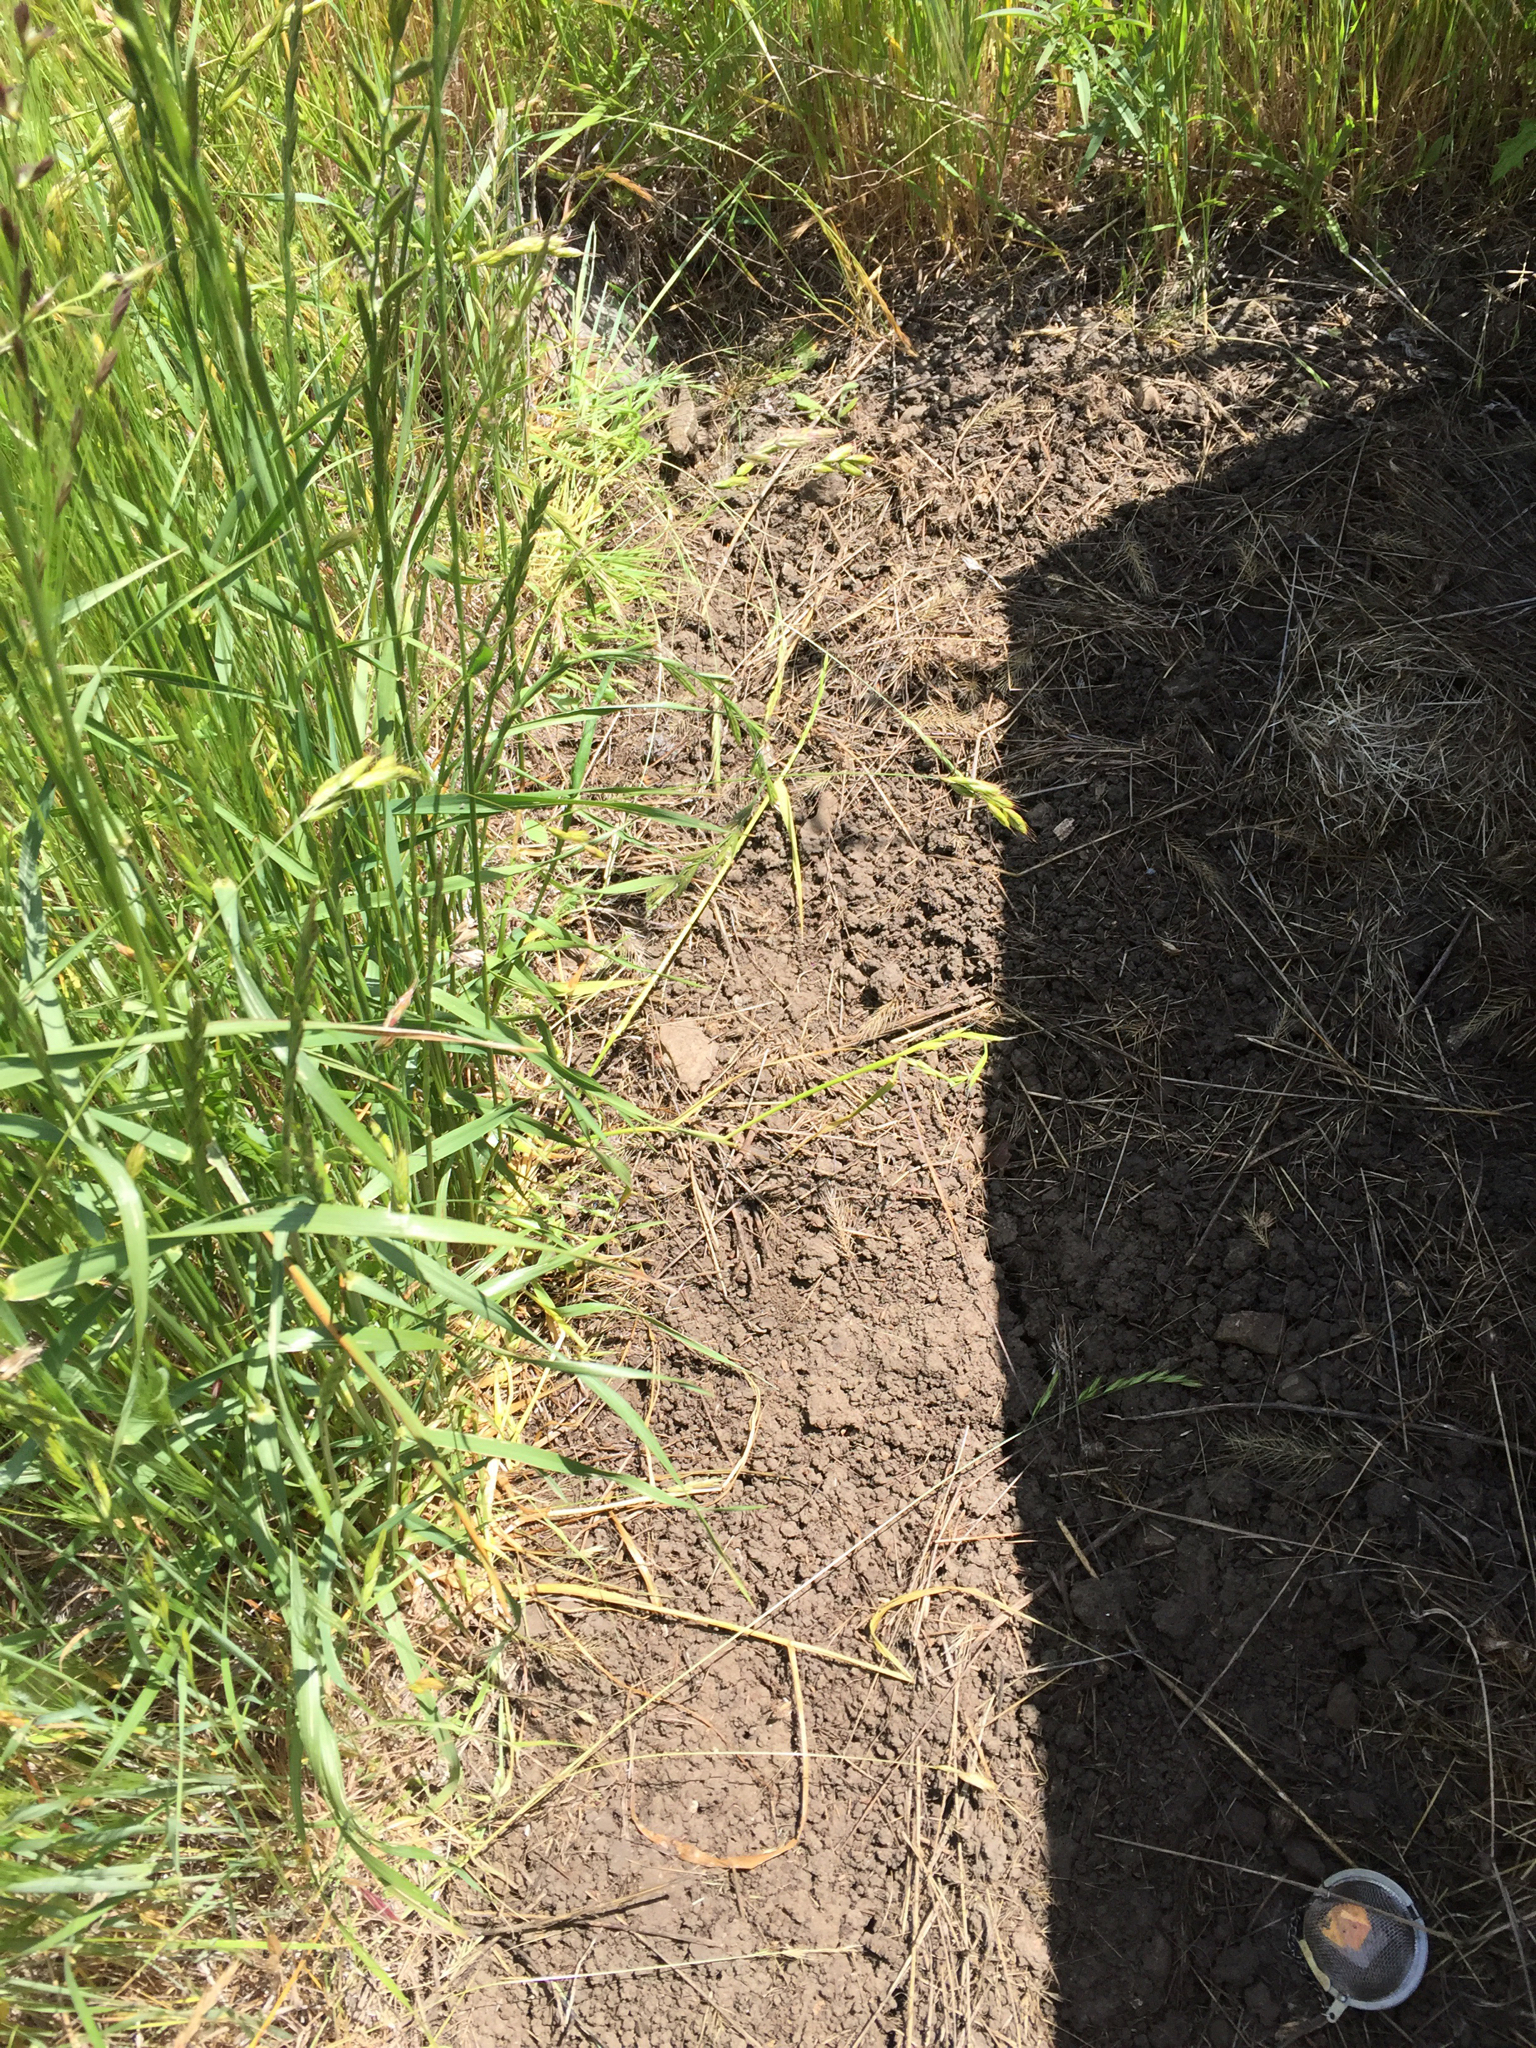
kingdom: Animalia
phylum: Chordata
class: Squamata
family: Phrynosomatidae
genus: Sceloporus
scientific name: Sceloporus occidentalis
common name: Western fence lizard
